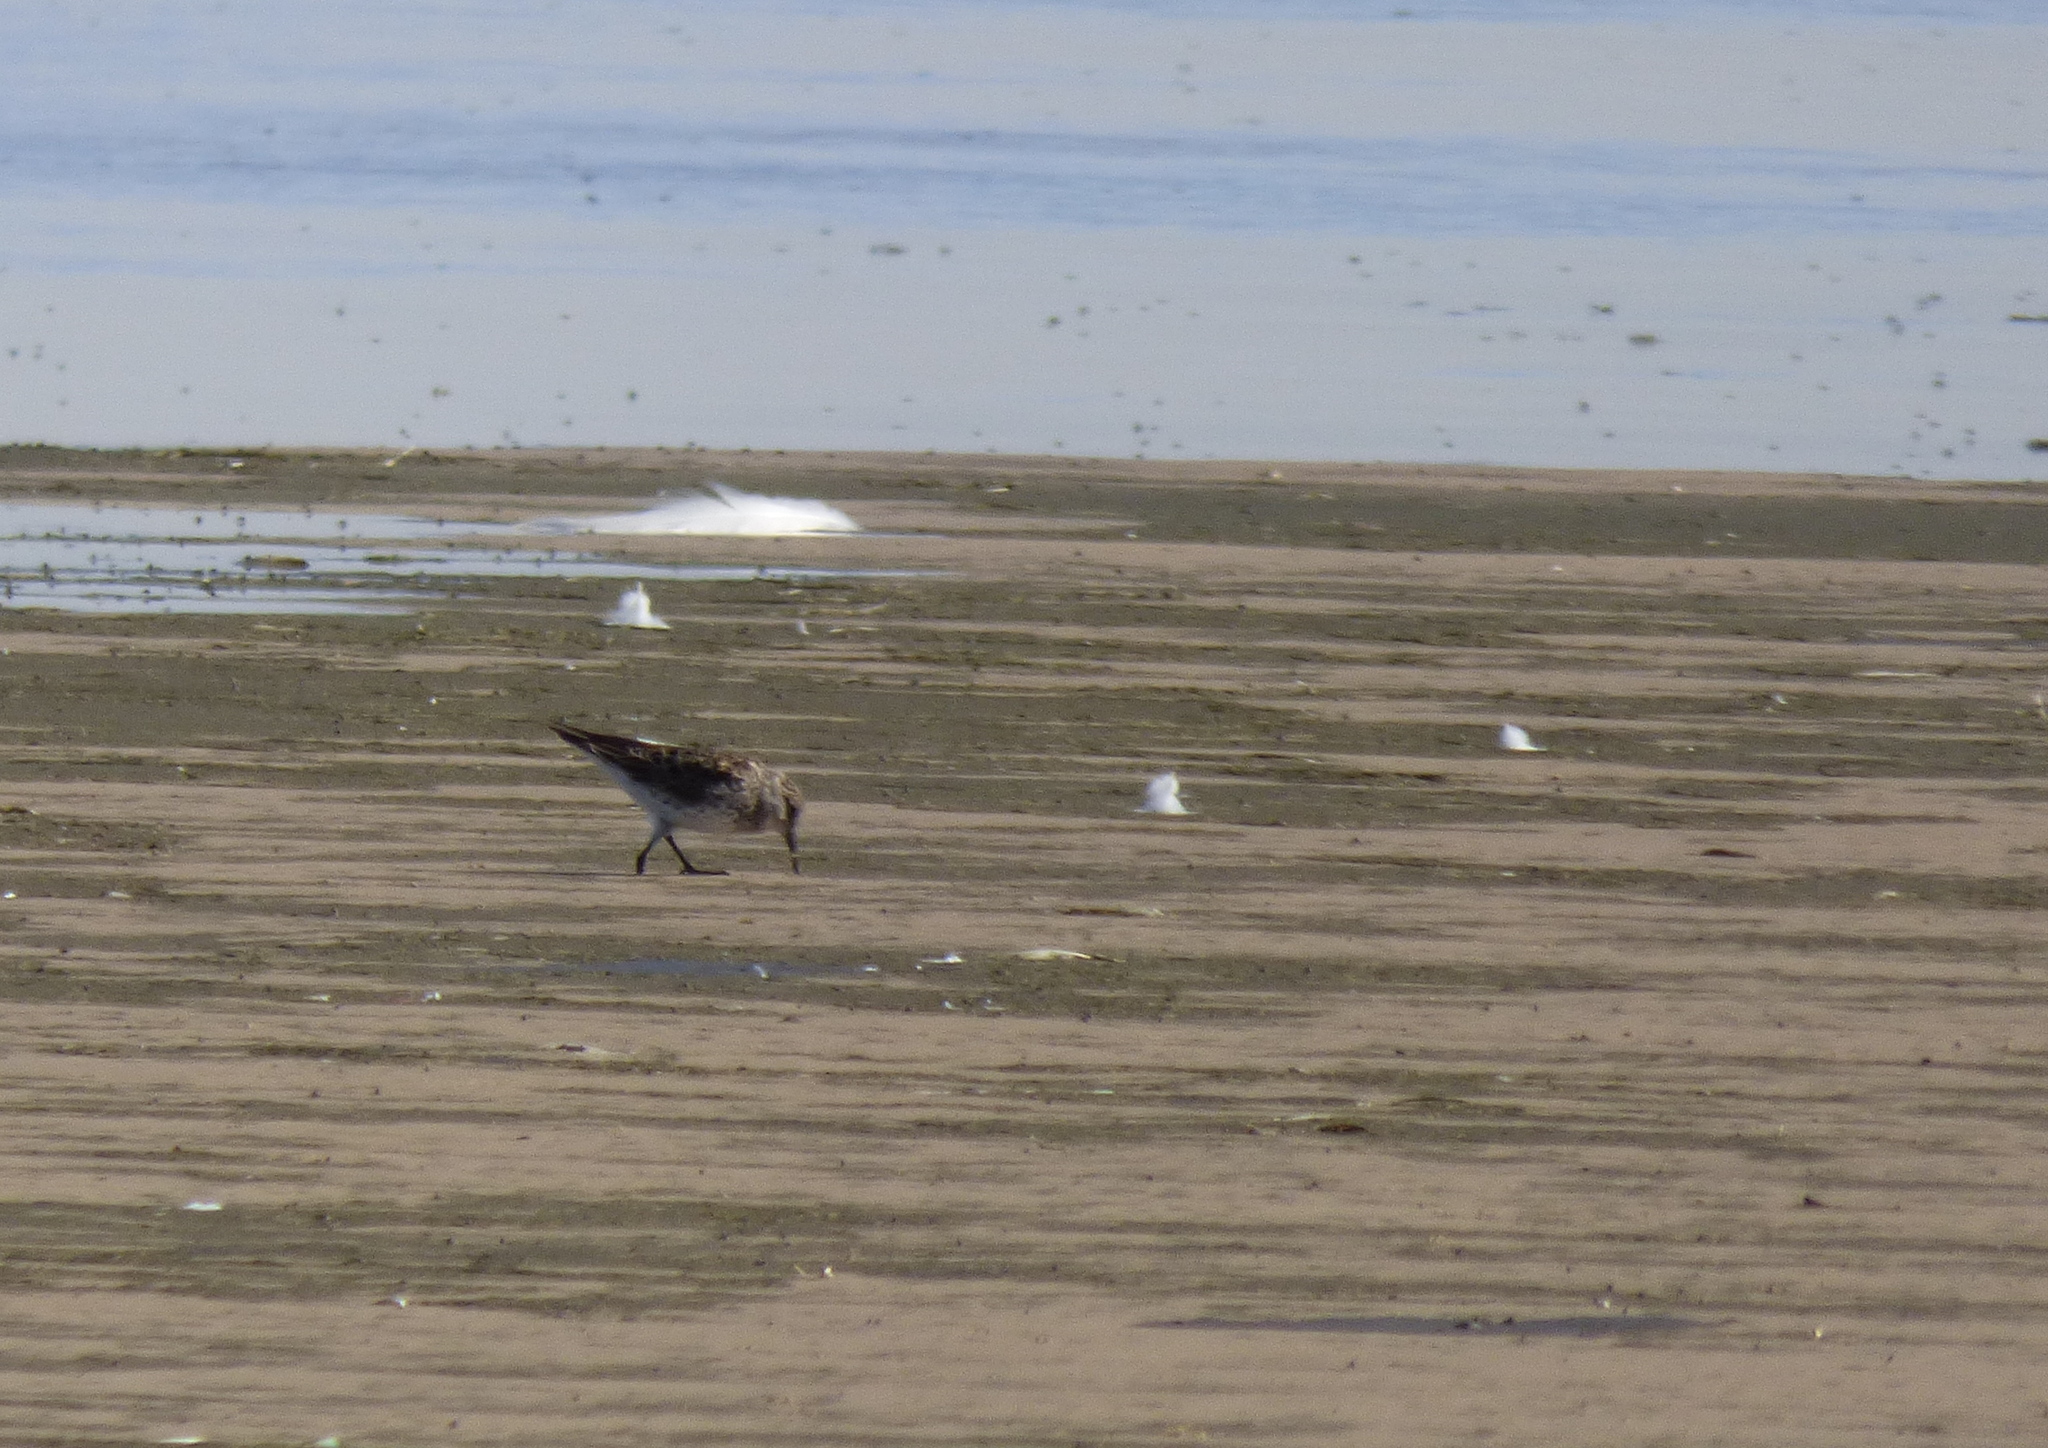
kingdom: Animalia
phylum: Chordata
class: Aves
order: Charadriiformes
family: Scolopacidae
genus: Calidris
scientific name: Calidris fuscicollis
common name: White-rumped sandpiper
